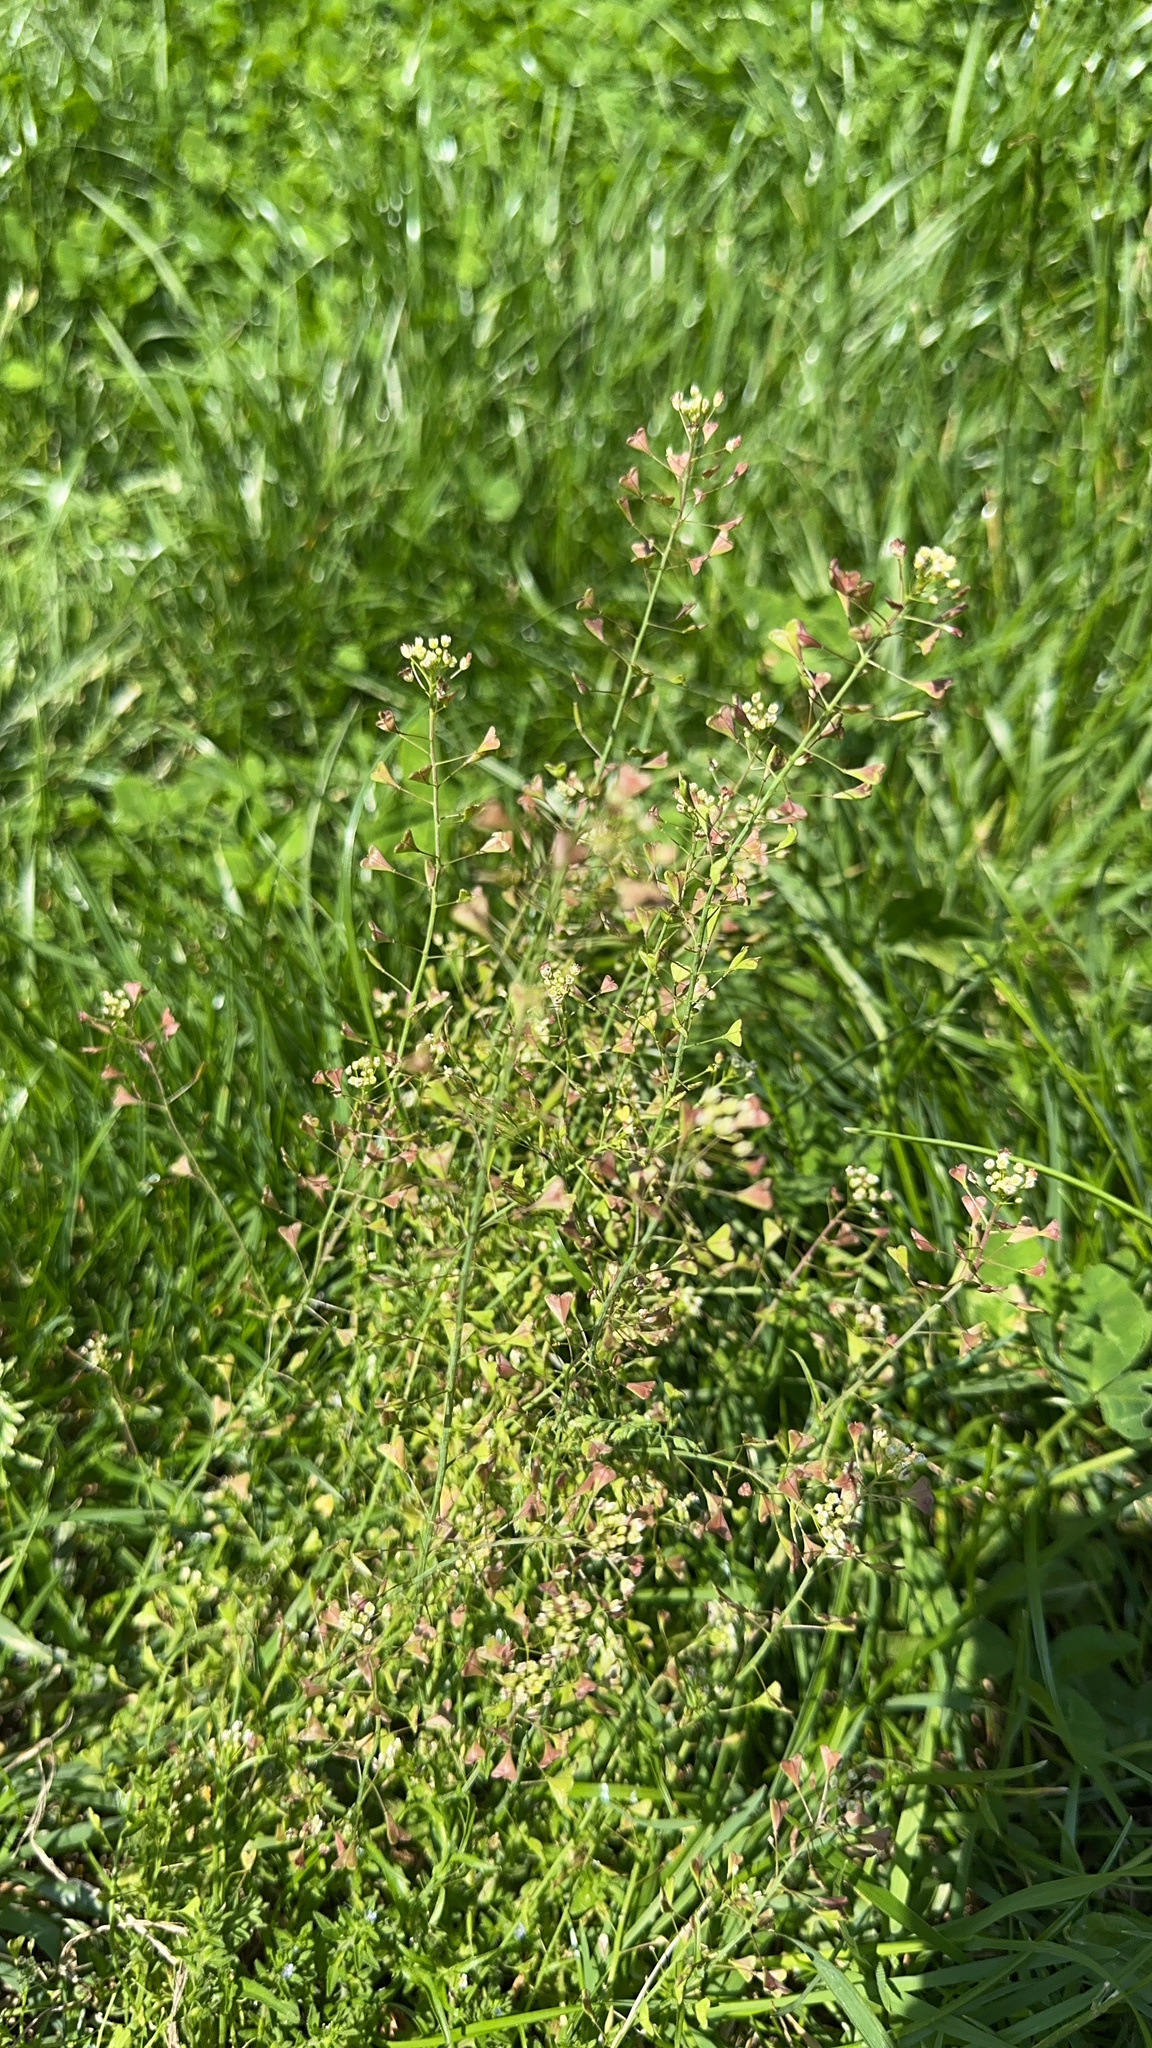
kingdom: Plantae
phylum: Tracheophyta
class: Magnoliopsida
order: Brassicales
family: Brassicaceae
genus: Capsella
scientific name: Capsella bursa-pastoris
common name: Shepherd's purse
